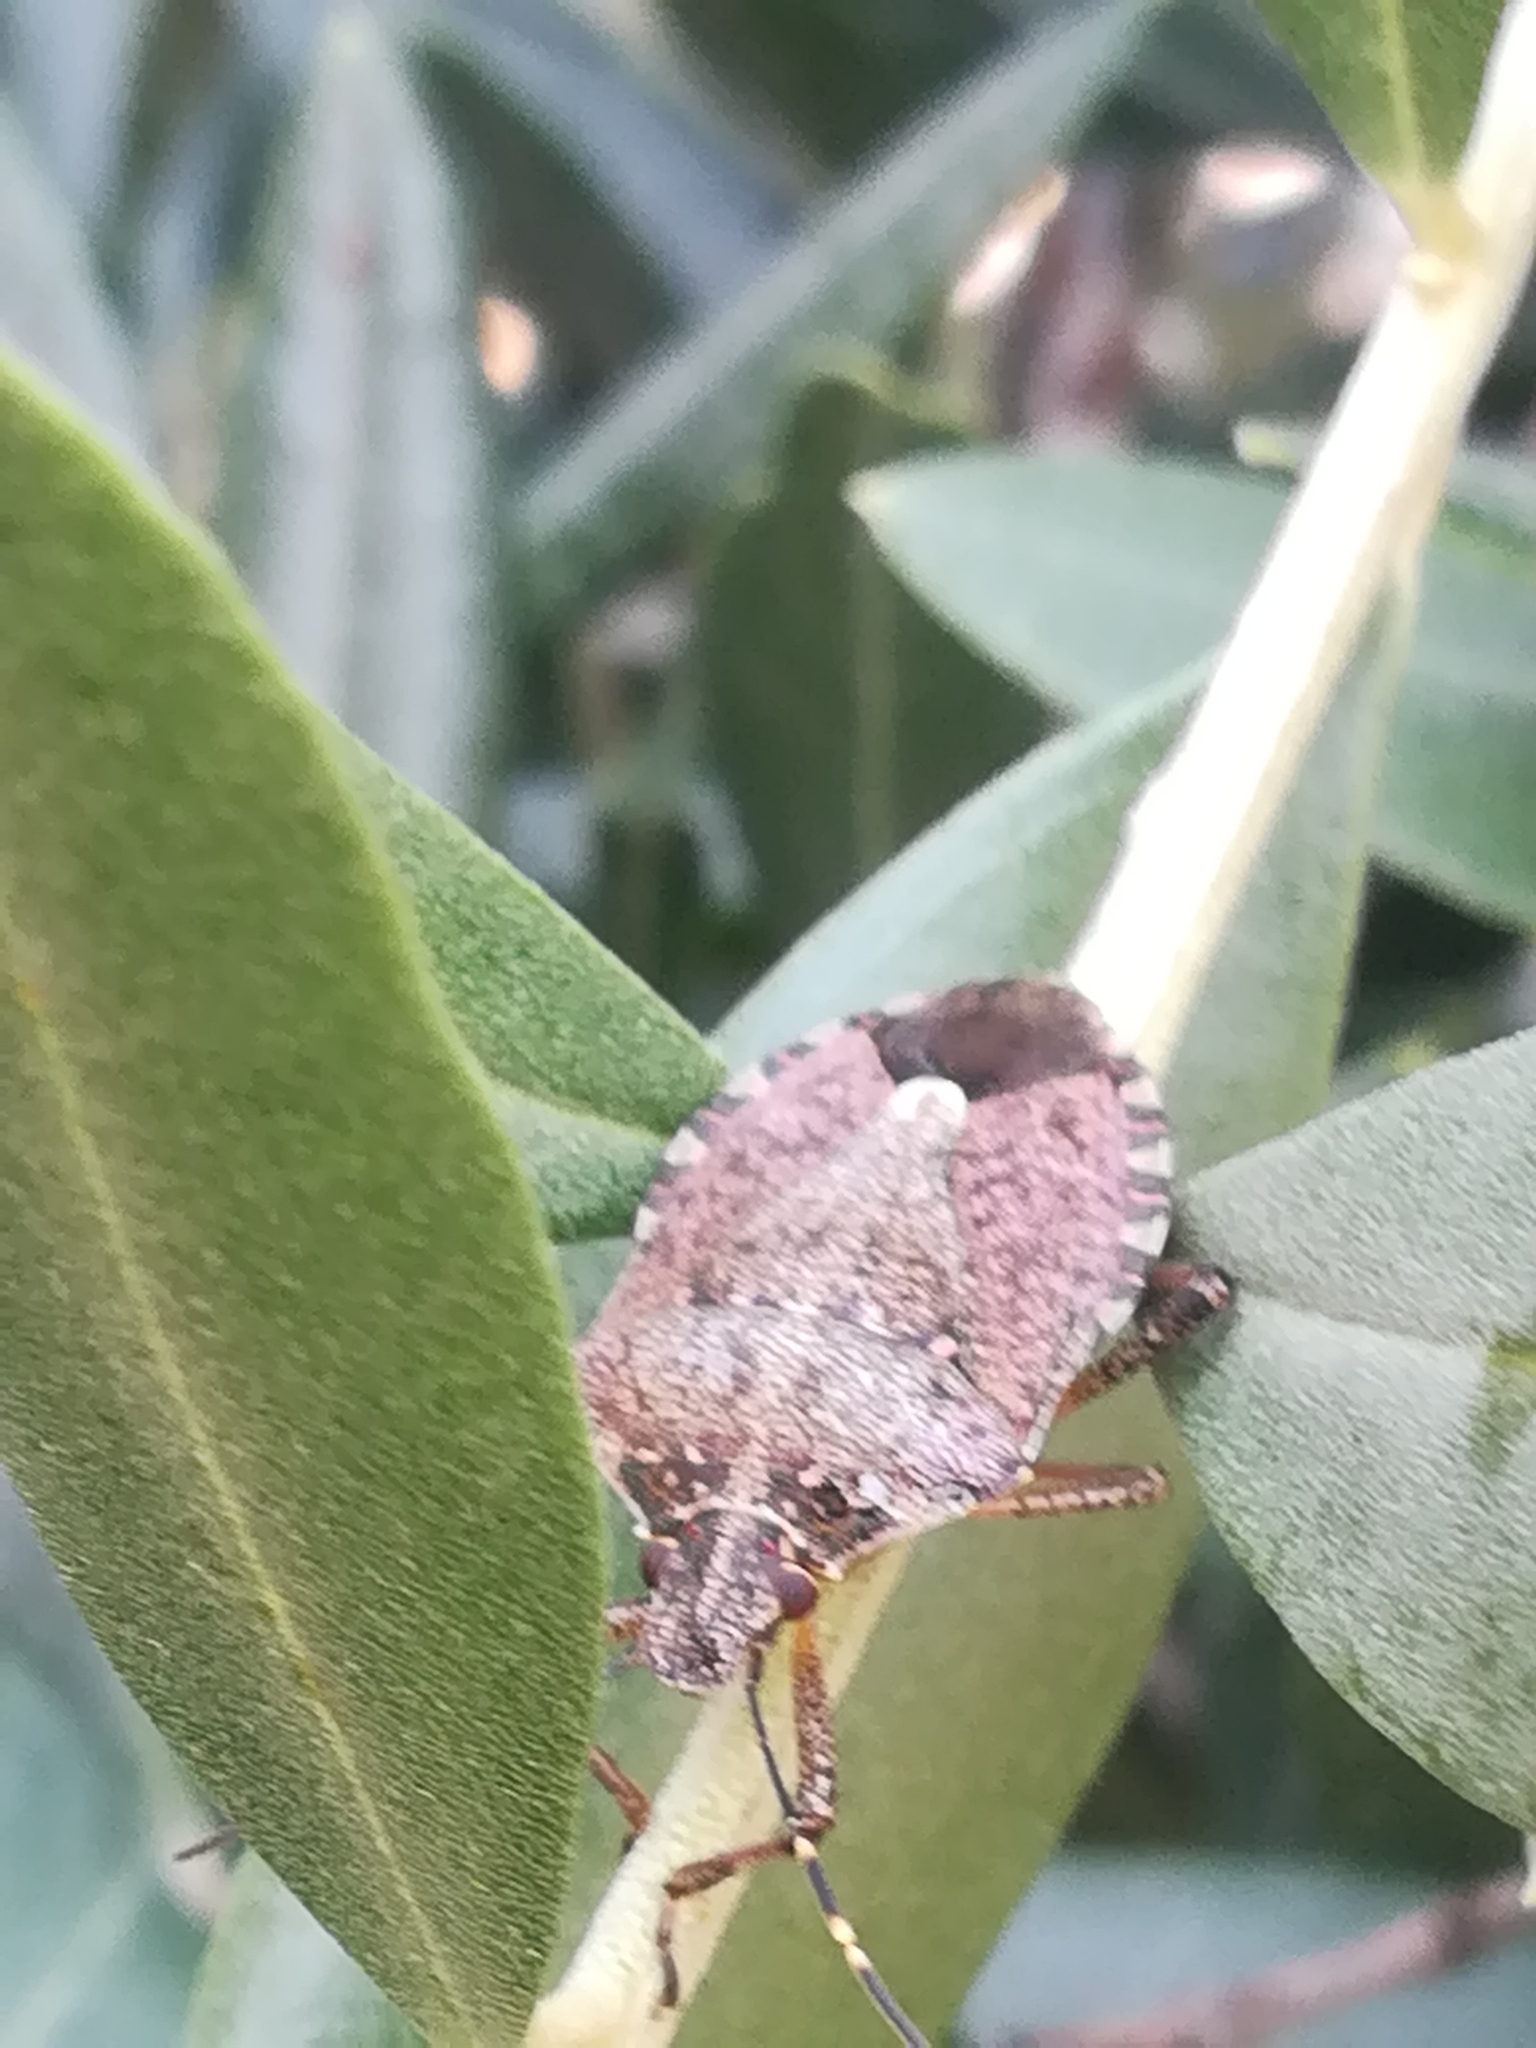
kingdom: Animalia
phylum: Arthropoda
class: Insecta
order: Hemiptera
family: Pentatomidae
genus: Halyomorpha
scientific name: Halyomorpha halys
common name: Brown marmorated stink bug
